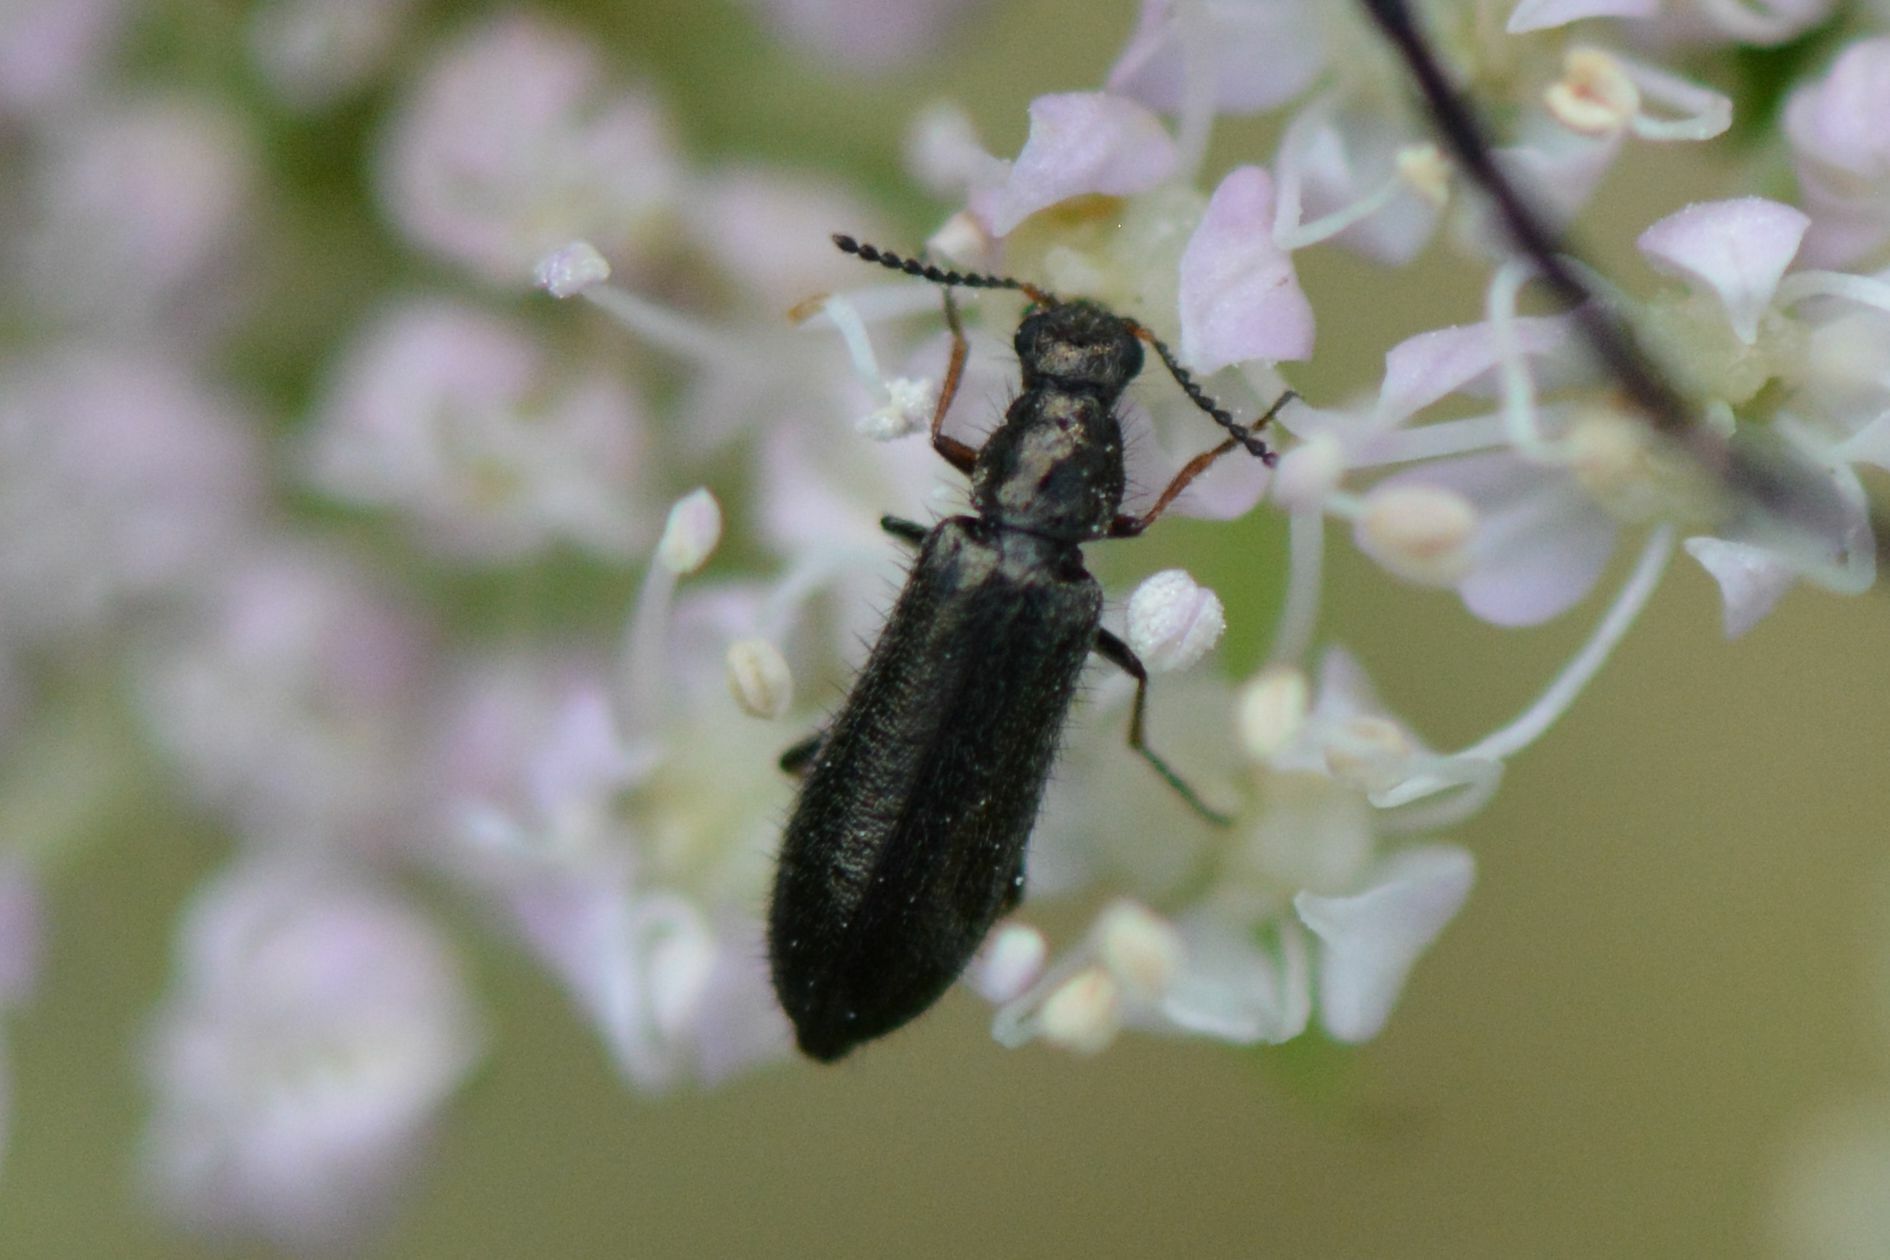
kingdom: Animalia
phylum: Arthropoda
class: Insecta
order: Coleoptera
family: Melyridae
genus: Dasytes
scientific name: Dasytes plumbeus
